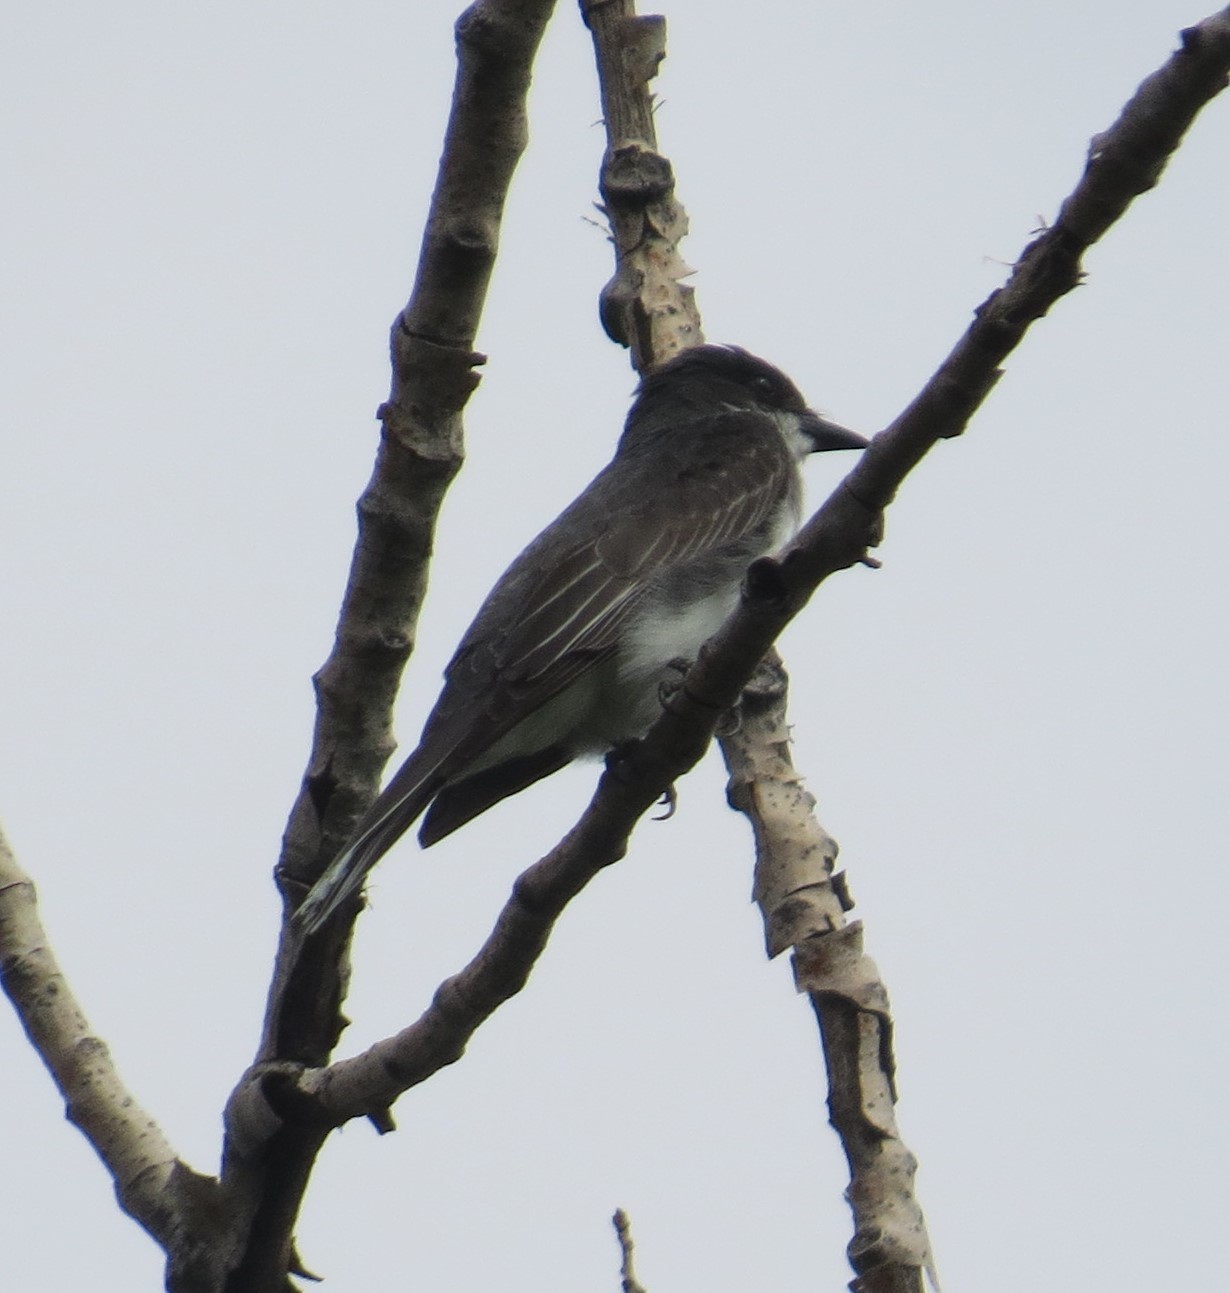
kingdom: Animalia
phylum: Chordata
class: Aves
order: Passeriformes
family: Tyrannidae
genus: Tyrannus
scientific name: Tyrannus tyrannus
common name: Eastern kingbird
